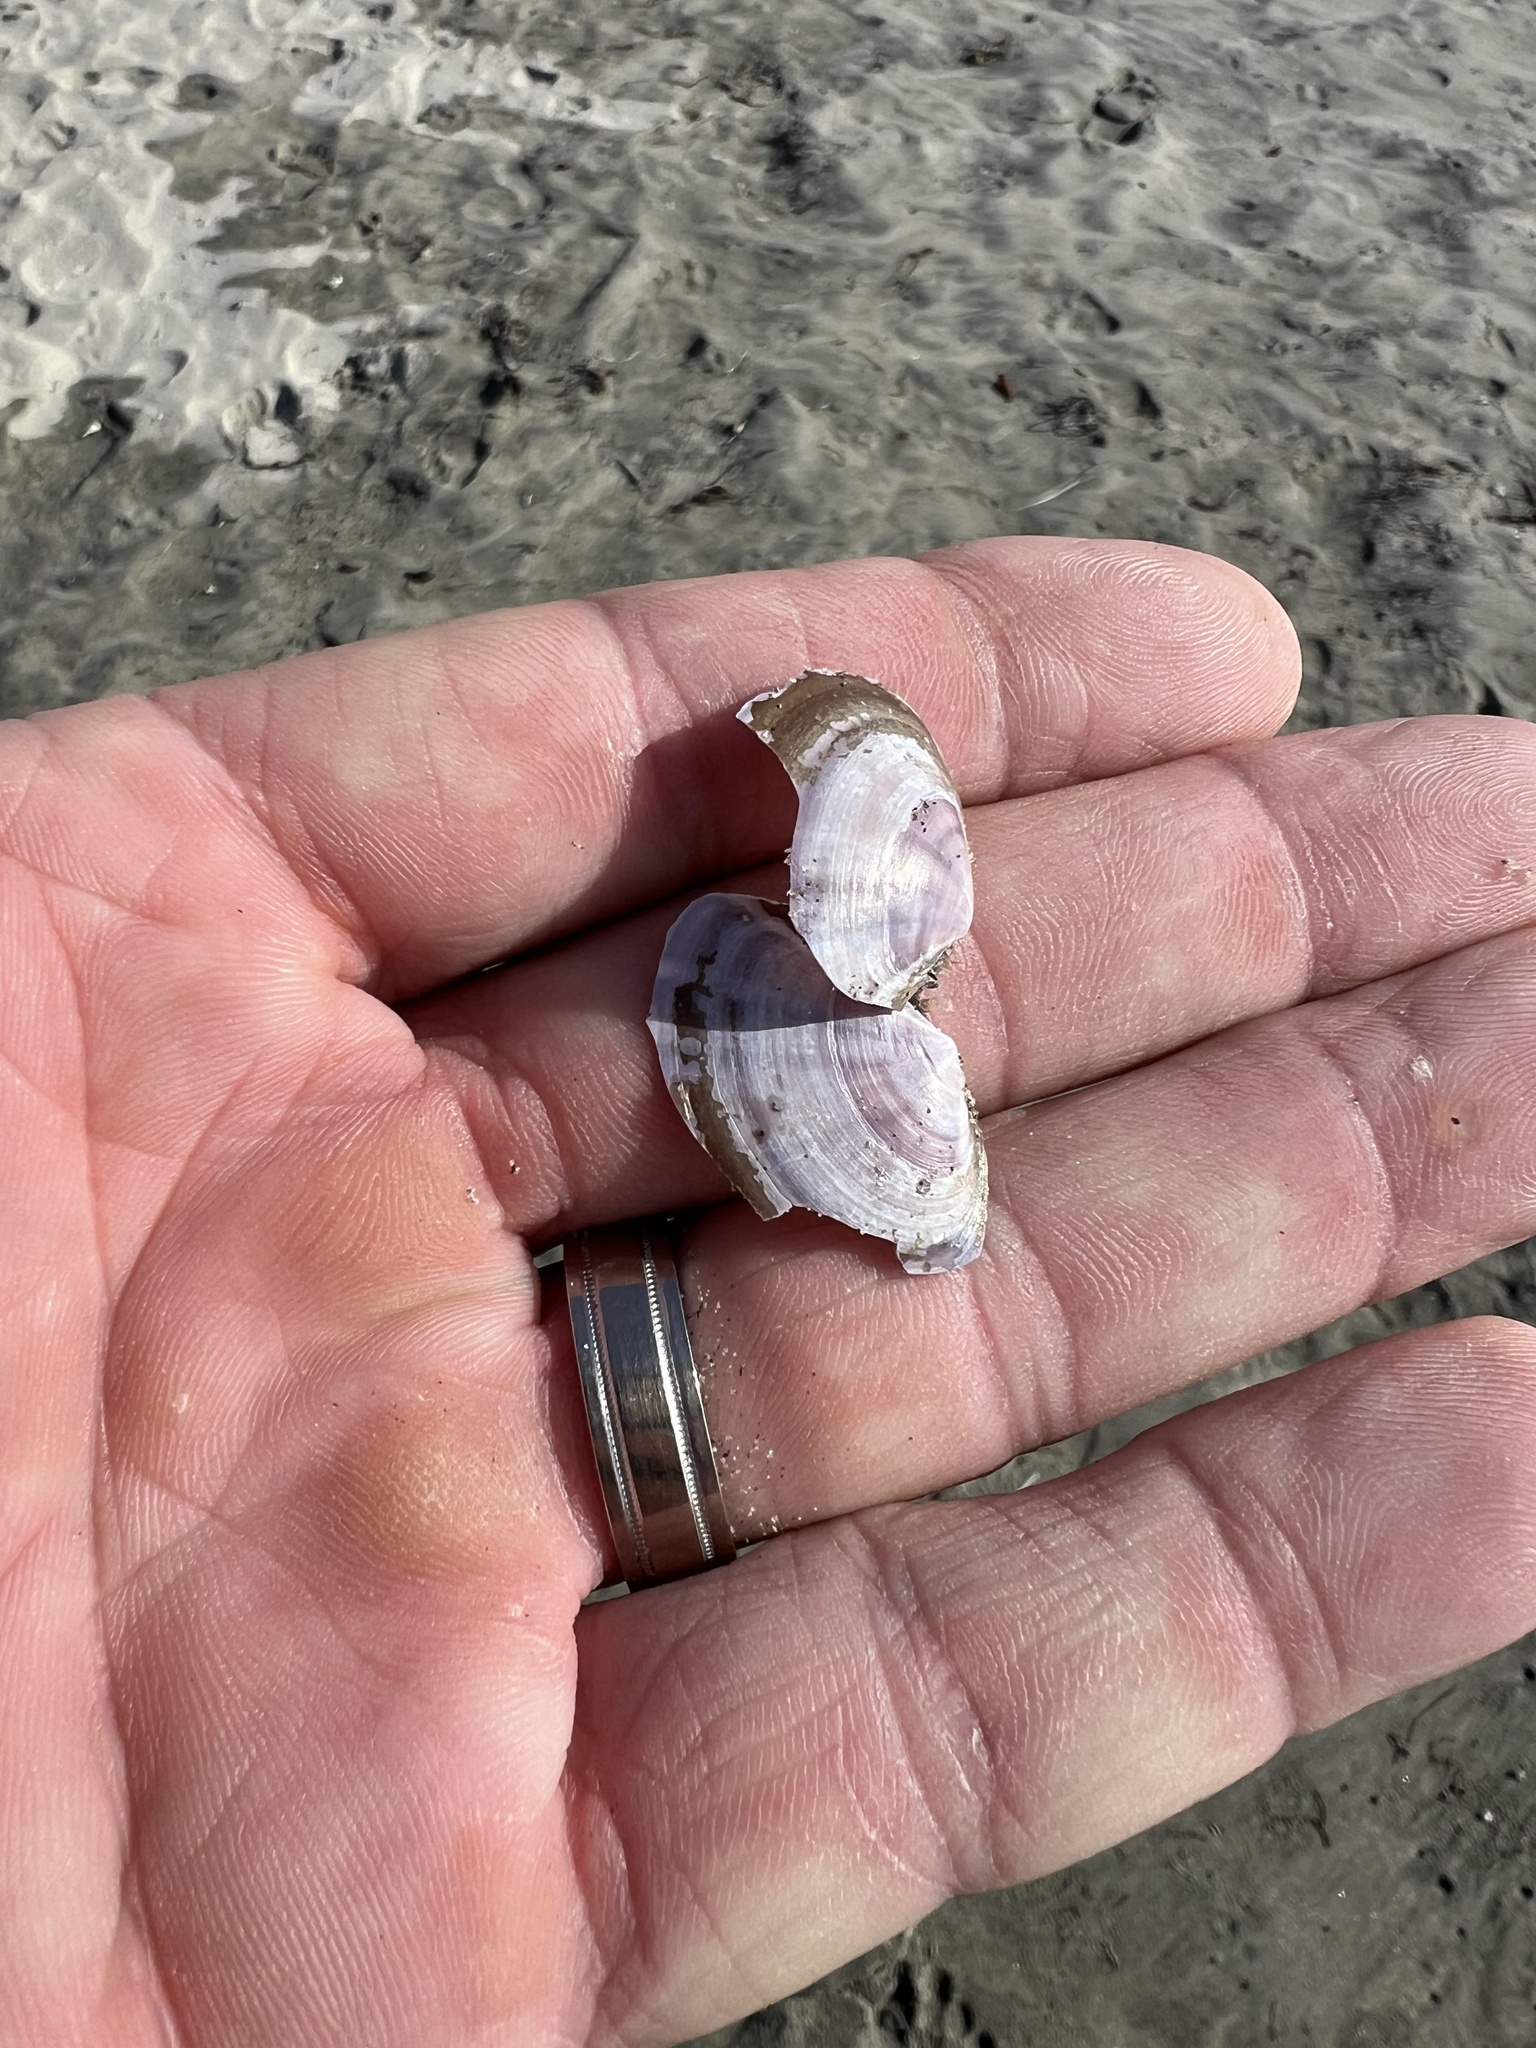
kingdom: Animalia
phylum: Mollusca
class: Bivalvia
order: Cardiida
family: Psammobiidae
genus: Nuttallia
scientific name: Nuttallia nuttallii
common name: California mahogany-clam
